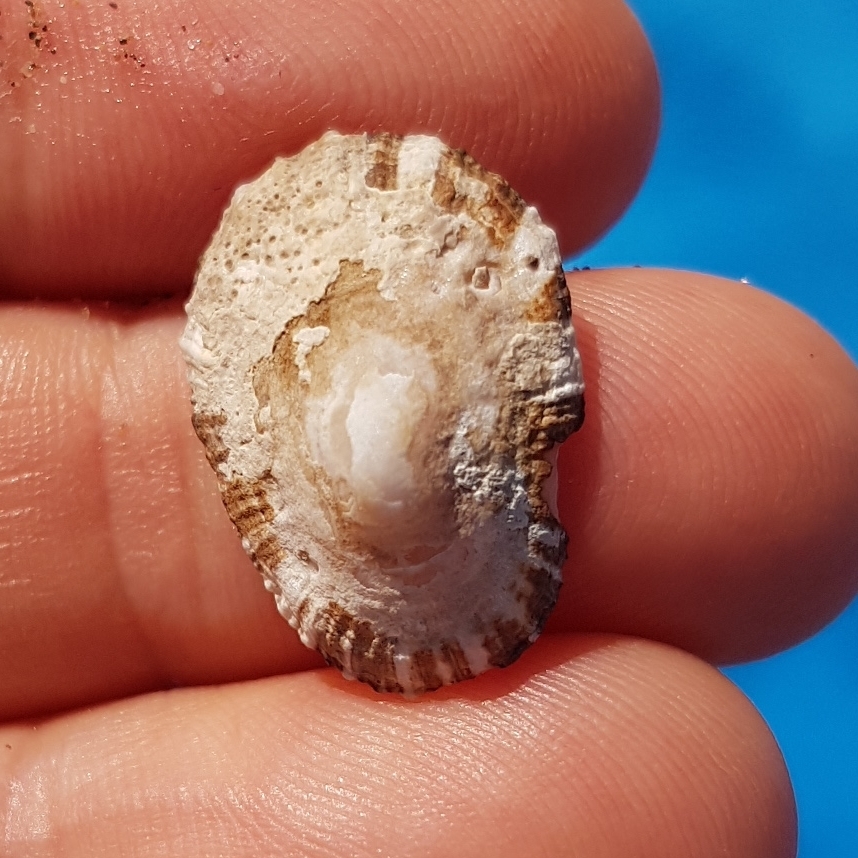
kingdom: Animalia
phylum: Mollusca
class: Gastropoda
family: Patellidae
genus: Patella
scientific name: Patella ulyssiponensis
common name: China limpet
